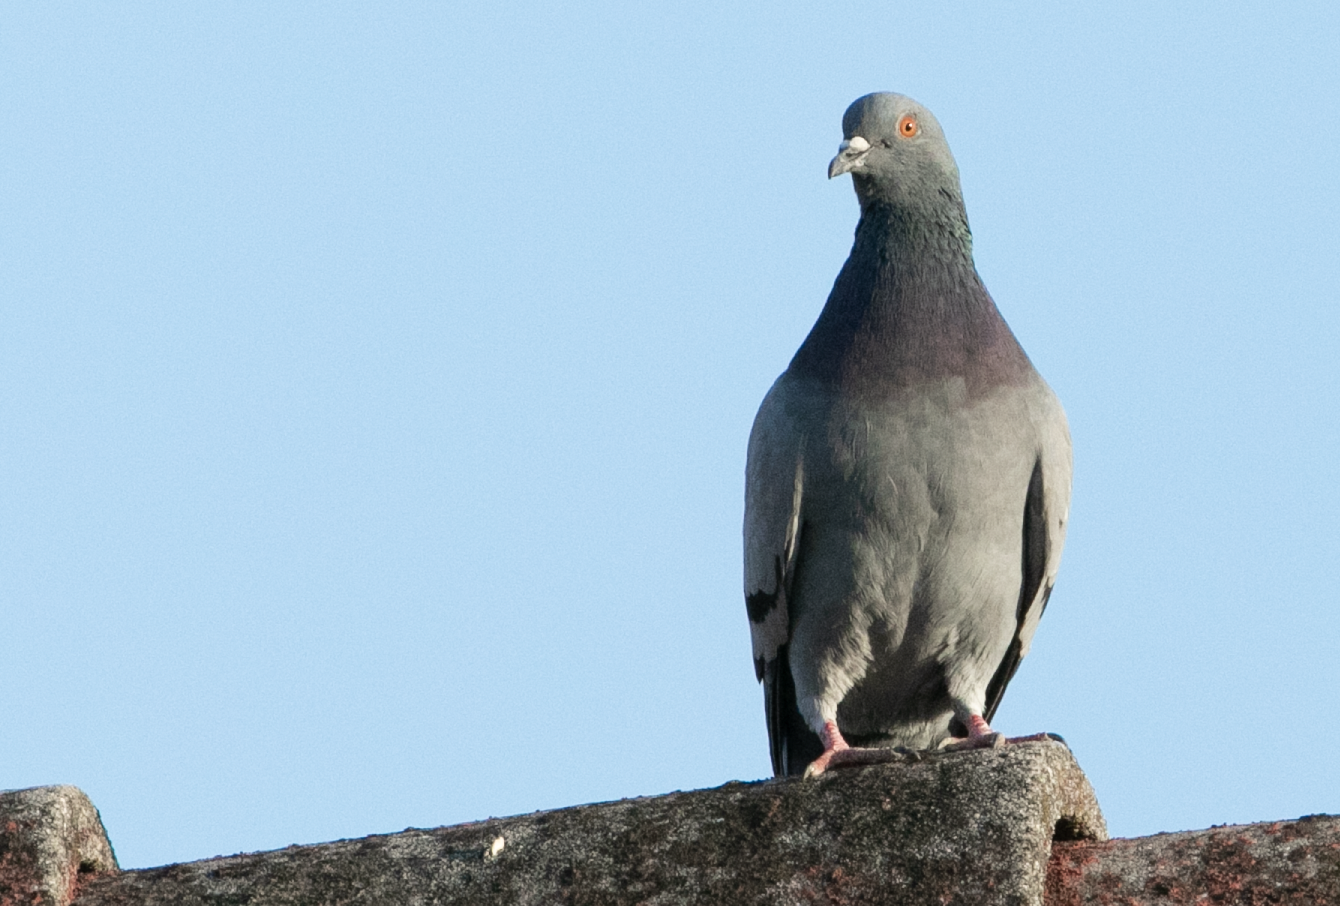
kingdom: Animalia
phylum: Chordata
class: Aves
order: Columbiformes
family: Columbidae
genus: Columba
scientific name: Columba livia
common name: Rock pigeon
